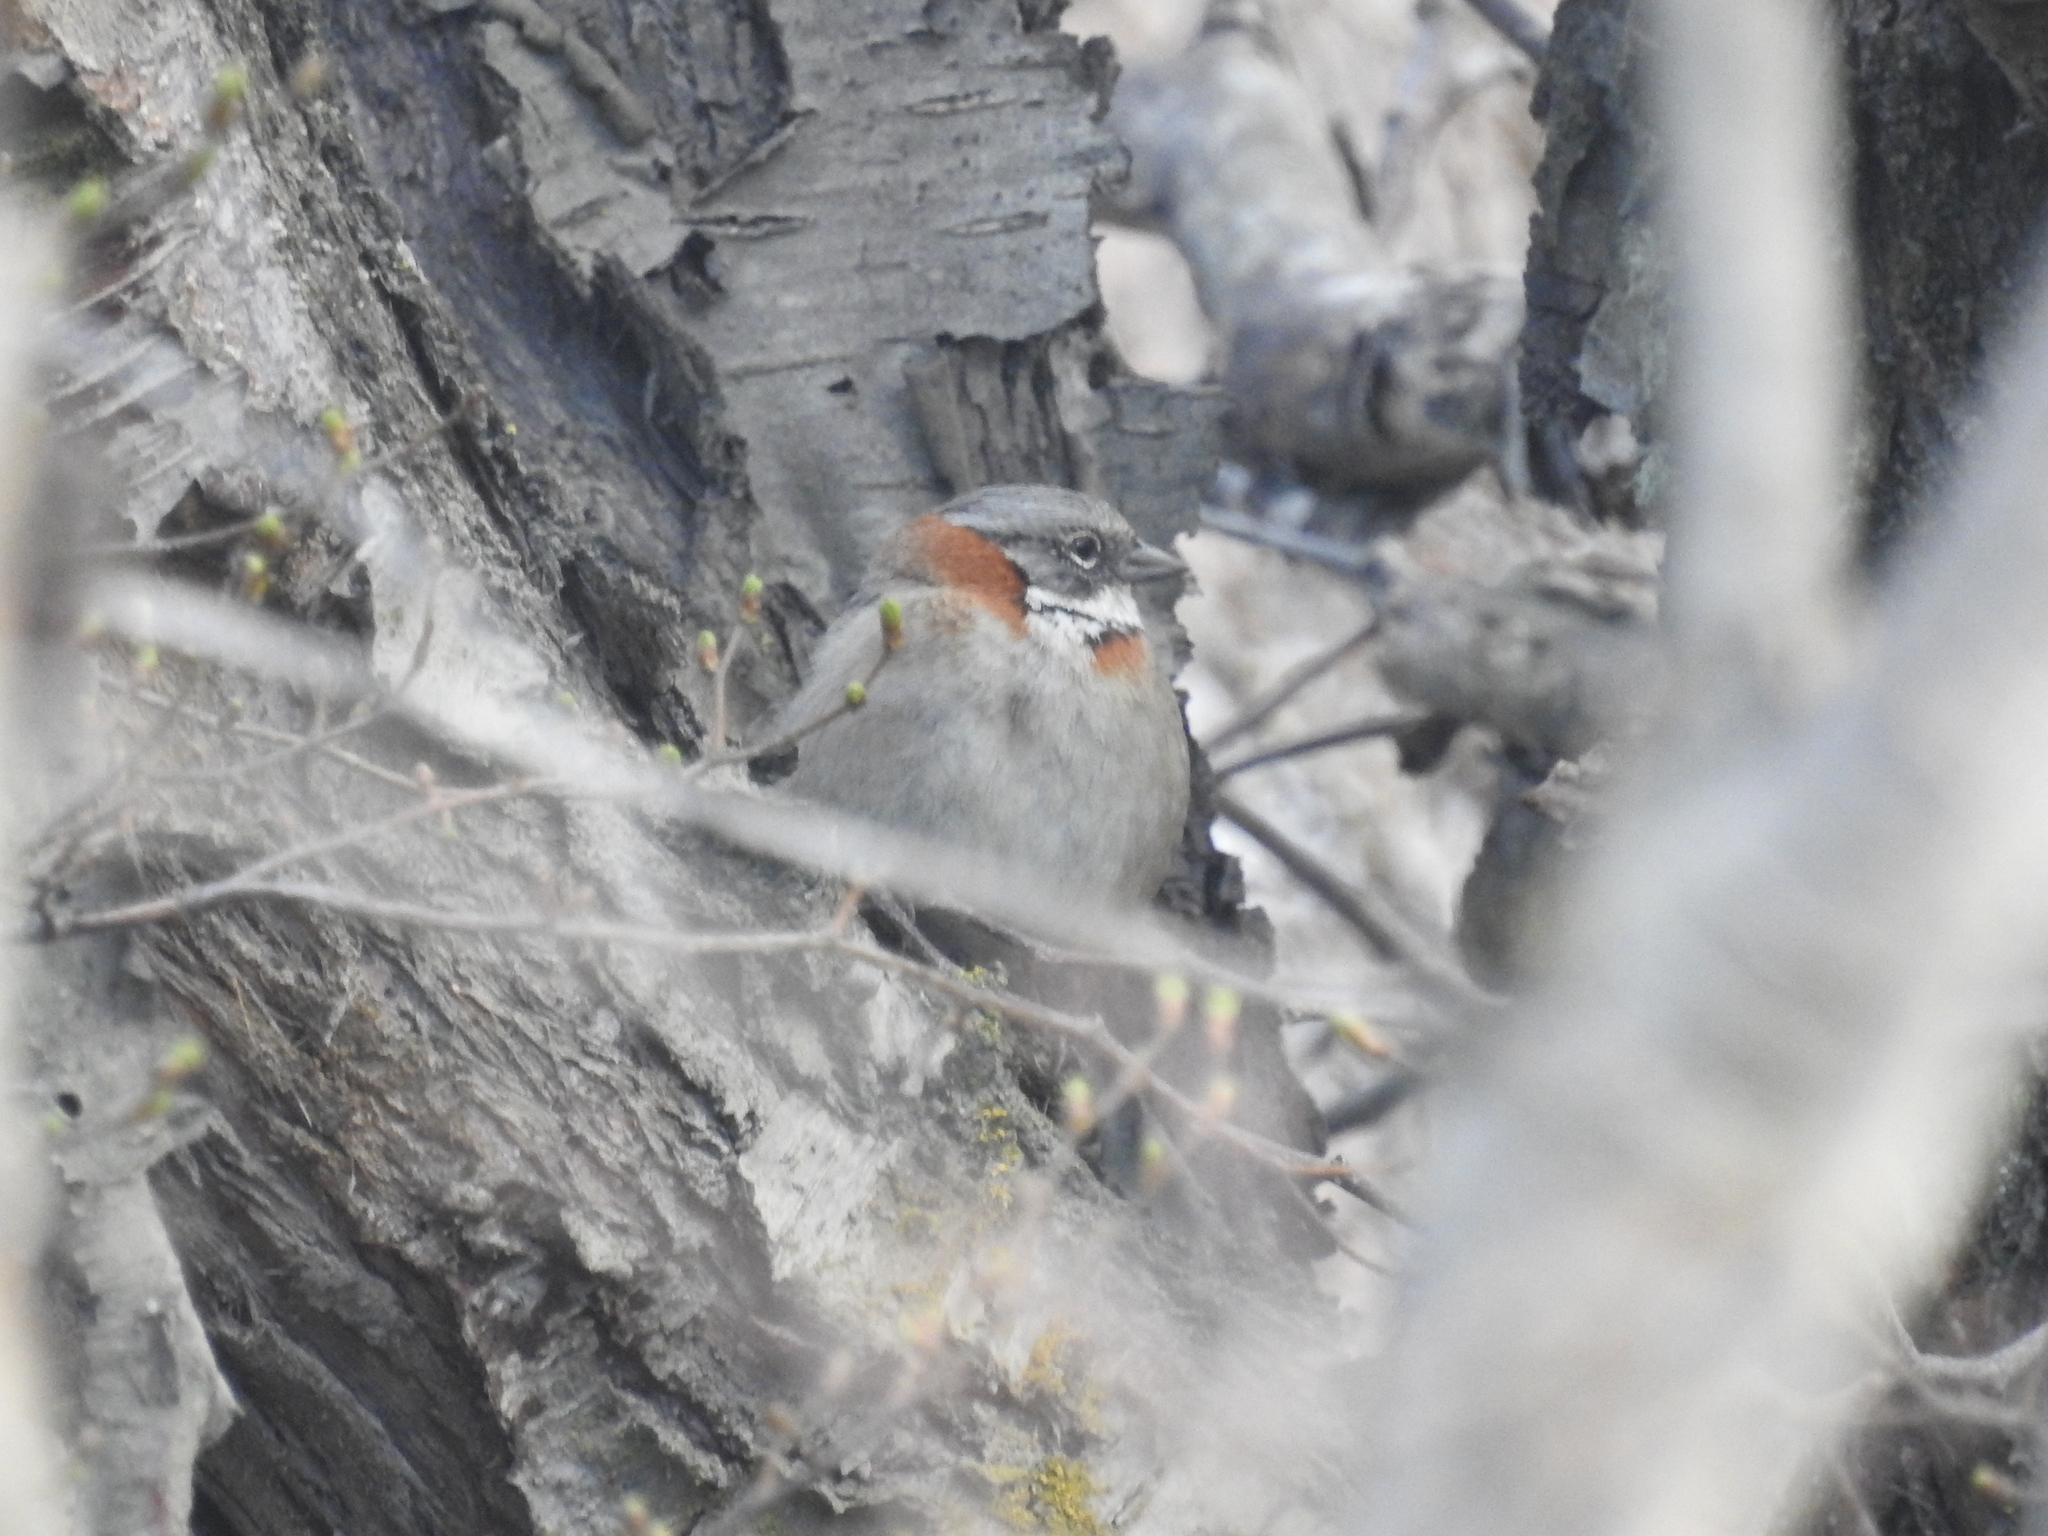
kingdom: Animalia
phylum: Chordata
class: Aves
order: Passeriformes
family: Passerellidae
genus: Zonotrichia
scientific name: Zonotrichia capensis
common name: Rufous-collared sparrow
